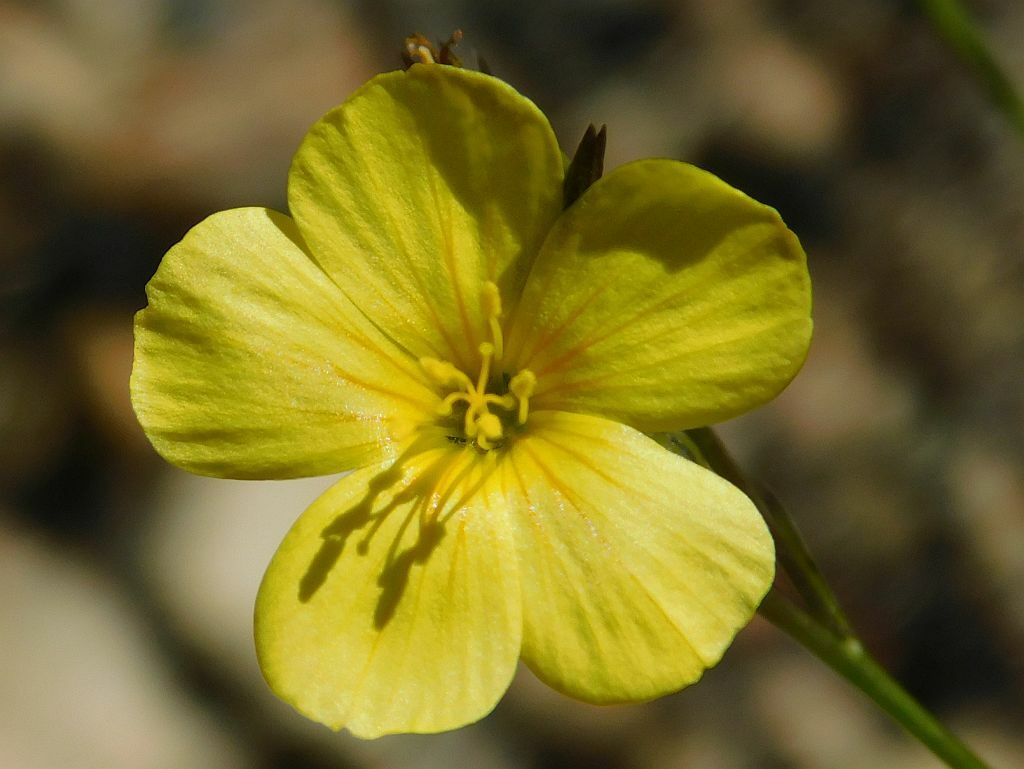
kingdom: Plantae
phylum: Tracheophyta
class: Magnoliopsida
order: Malpighiales
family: Linaceae
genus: Linum
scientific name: Linum africanum
